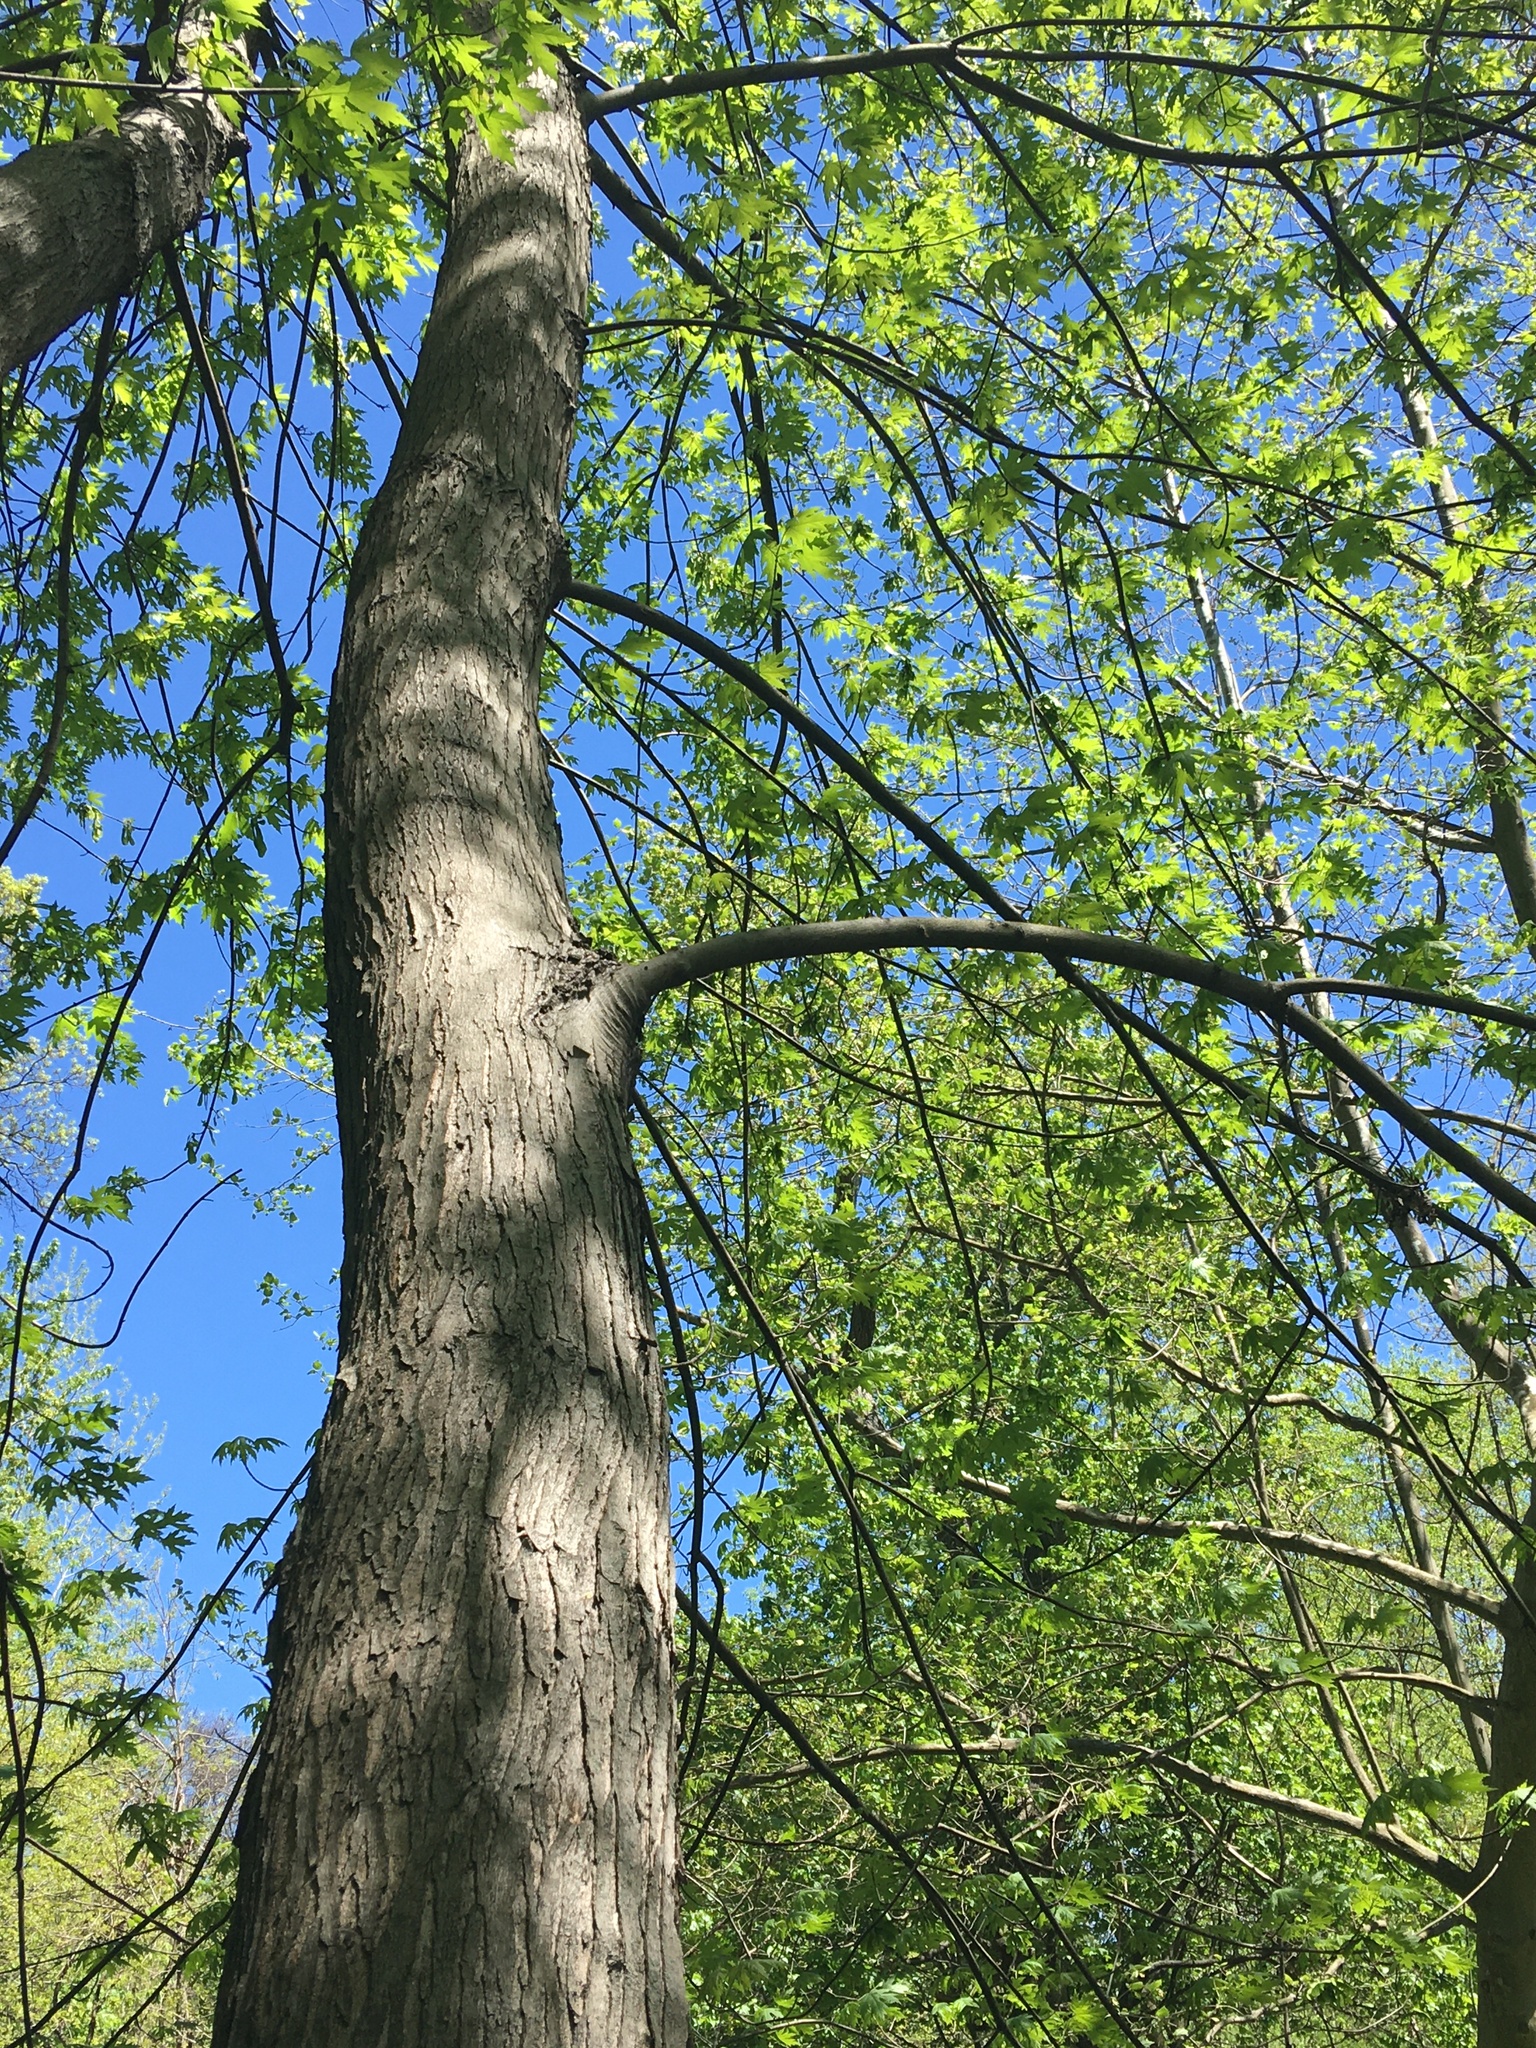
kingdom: Plantae
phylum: Tracheophyta
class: Magnoliopsida
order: Sapindales
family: Sapindaceae
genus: Acer
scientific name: Acer saccharinum
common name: Silver maple
